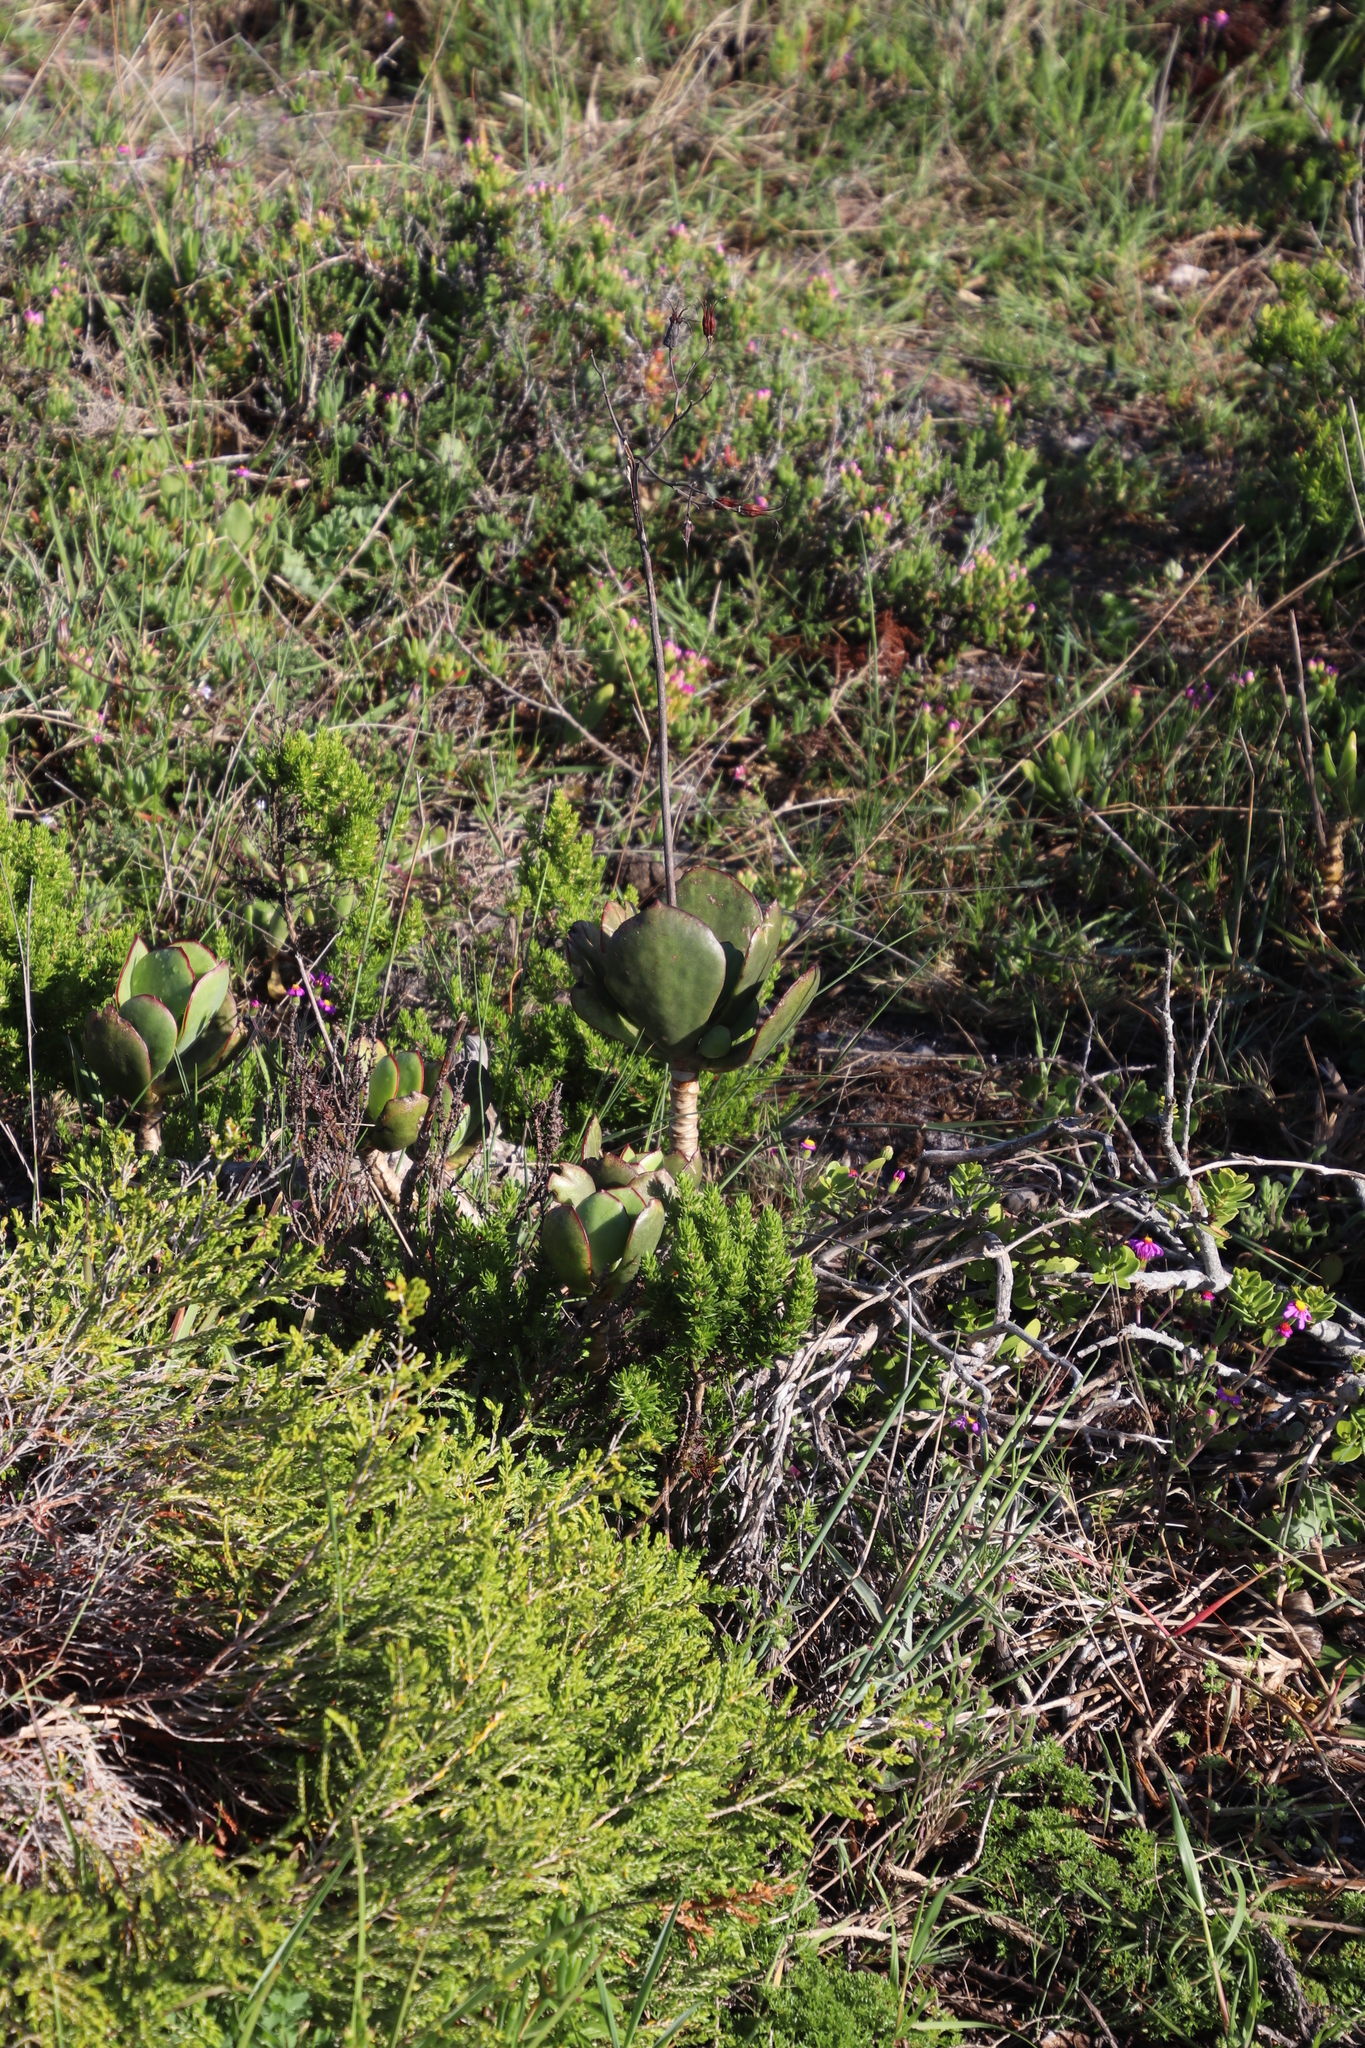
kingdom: Plantae
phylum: Tracheophyta
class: Magnoliopsida
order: Saxifragales
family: Crassulaceae
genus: Cotyledon
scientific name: Cotyledon orbiculata
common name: Pig's ear
